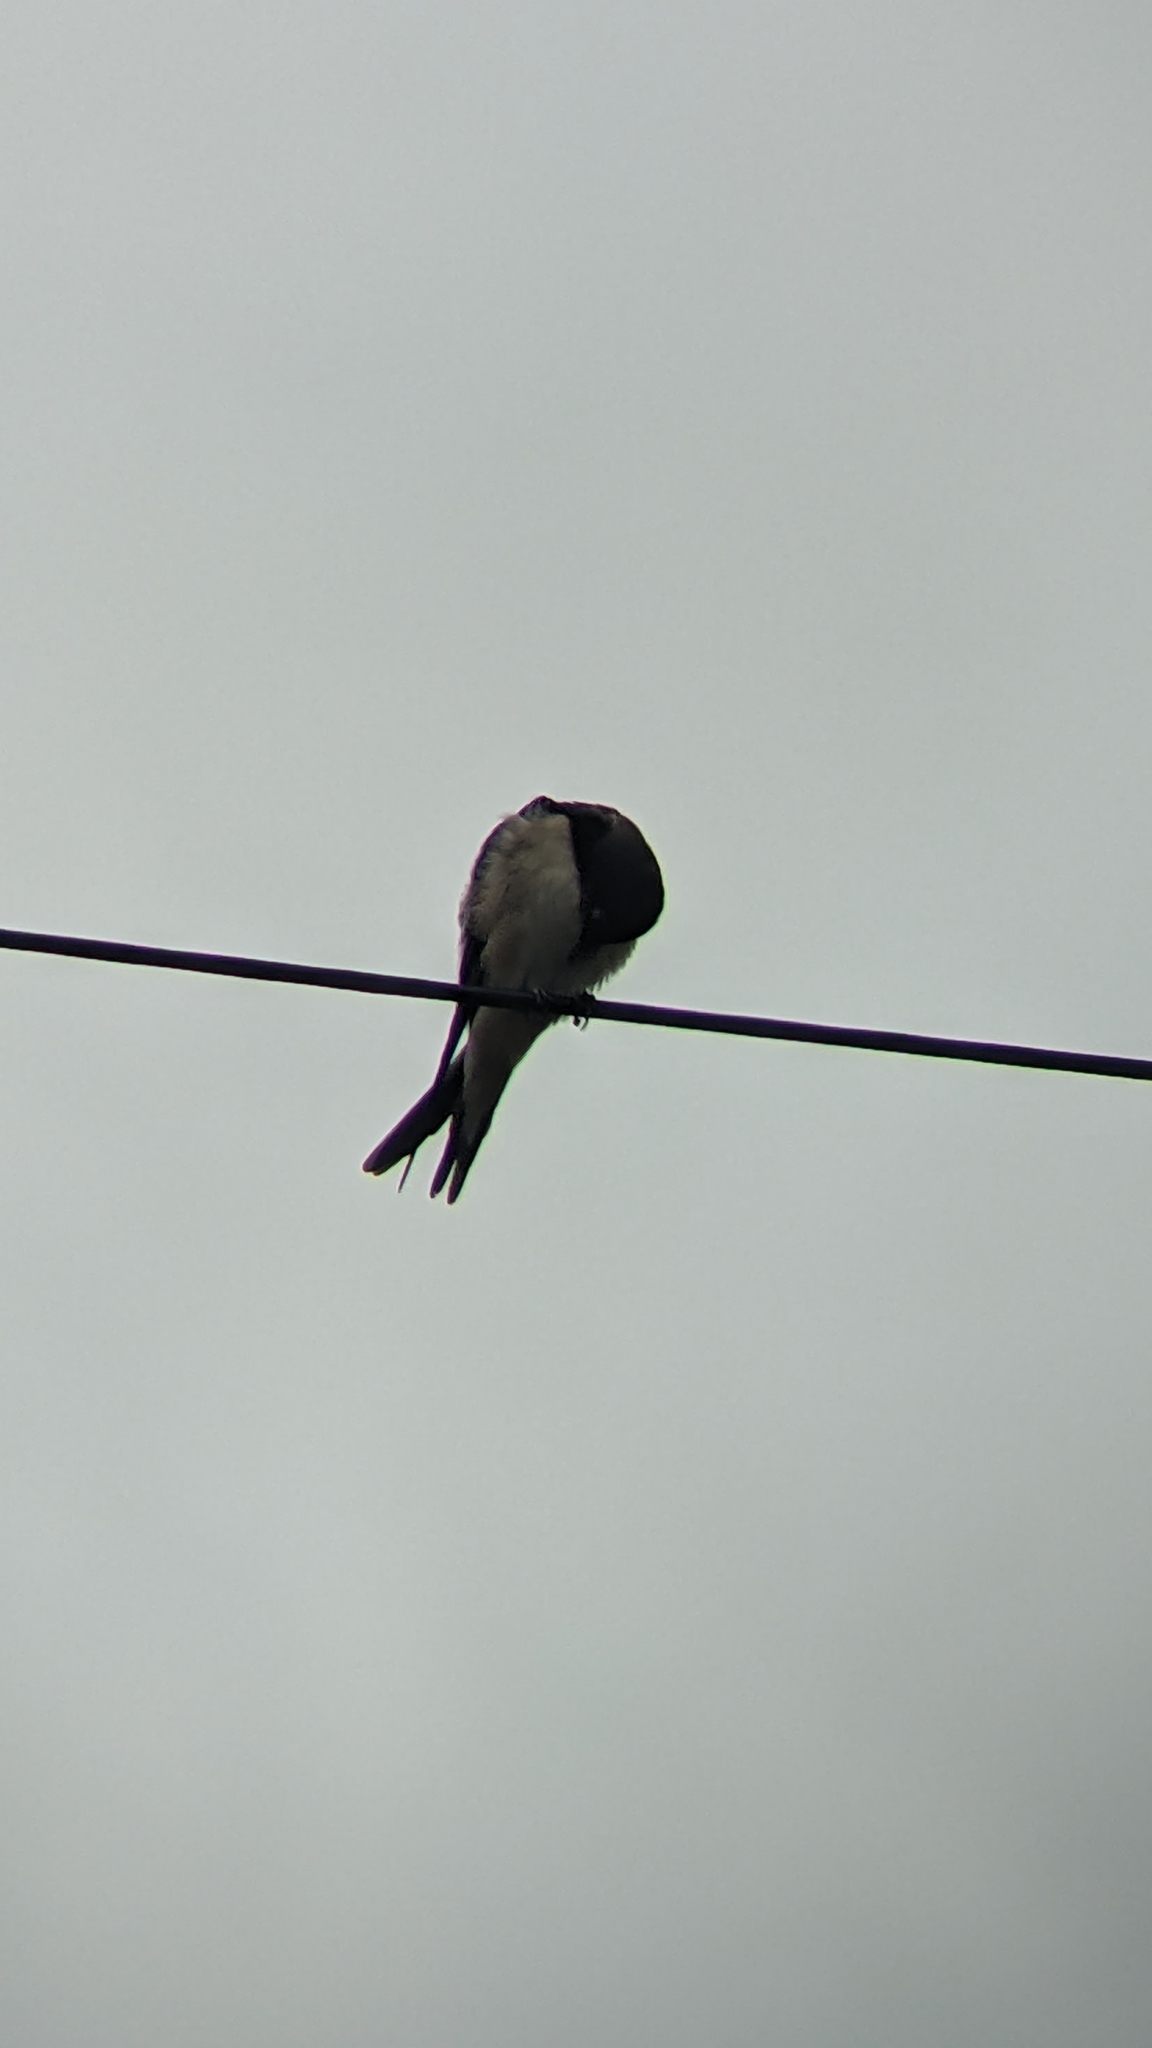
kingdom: Animalia
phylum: Chordata
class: Aves
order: Passeriformes
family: Hirundinidae
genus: Hirundo
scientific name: Hirundo rustica
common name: Barn swallow
